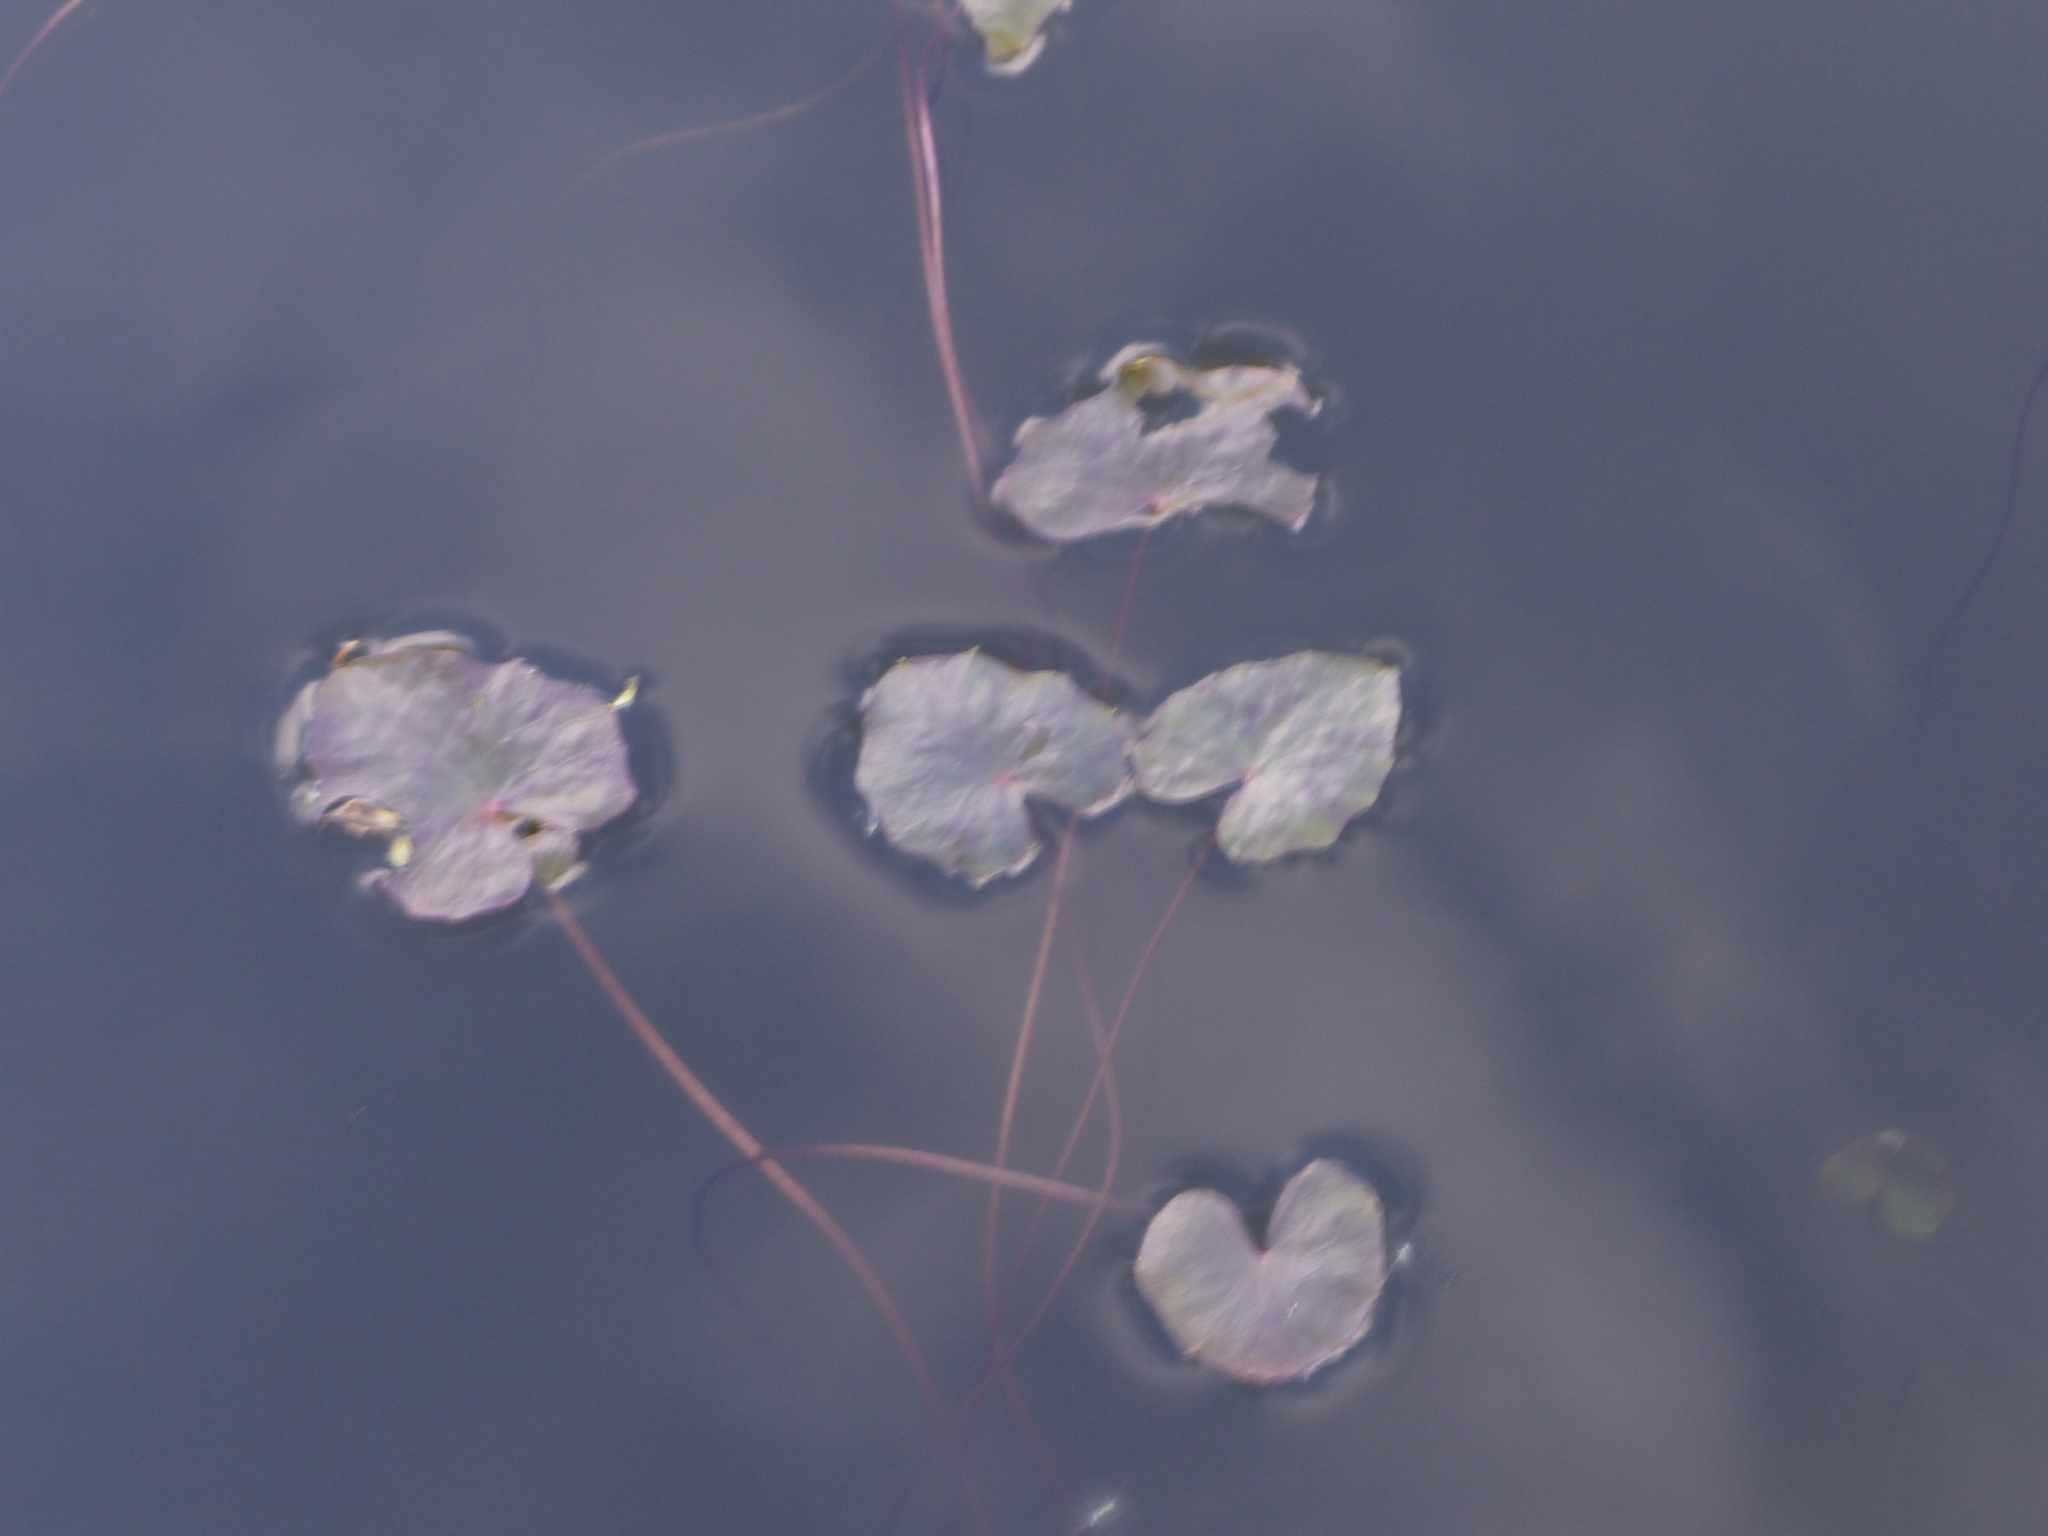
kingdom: Plantae
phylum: Tracheophyta
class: Magnoliopsida
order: Asterales
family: Menyanthaceae
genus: Nymphoides
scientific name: Nymphoides peltata
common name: Fringed water-lily
